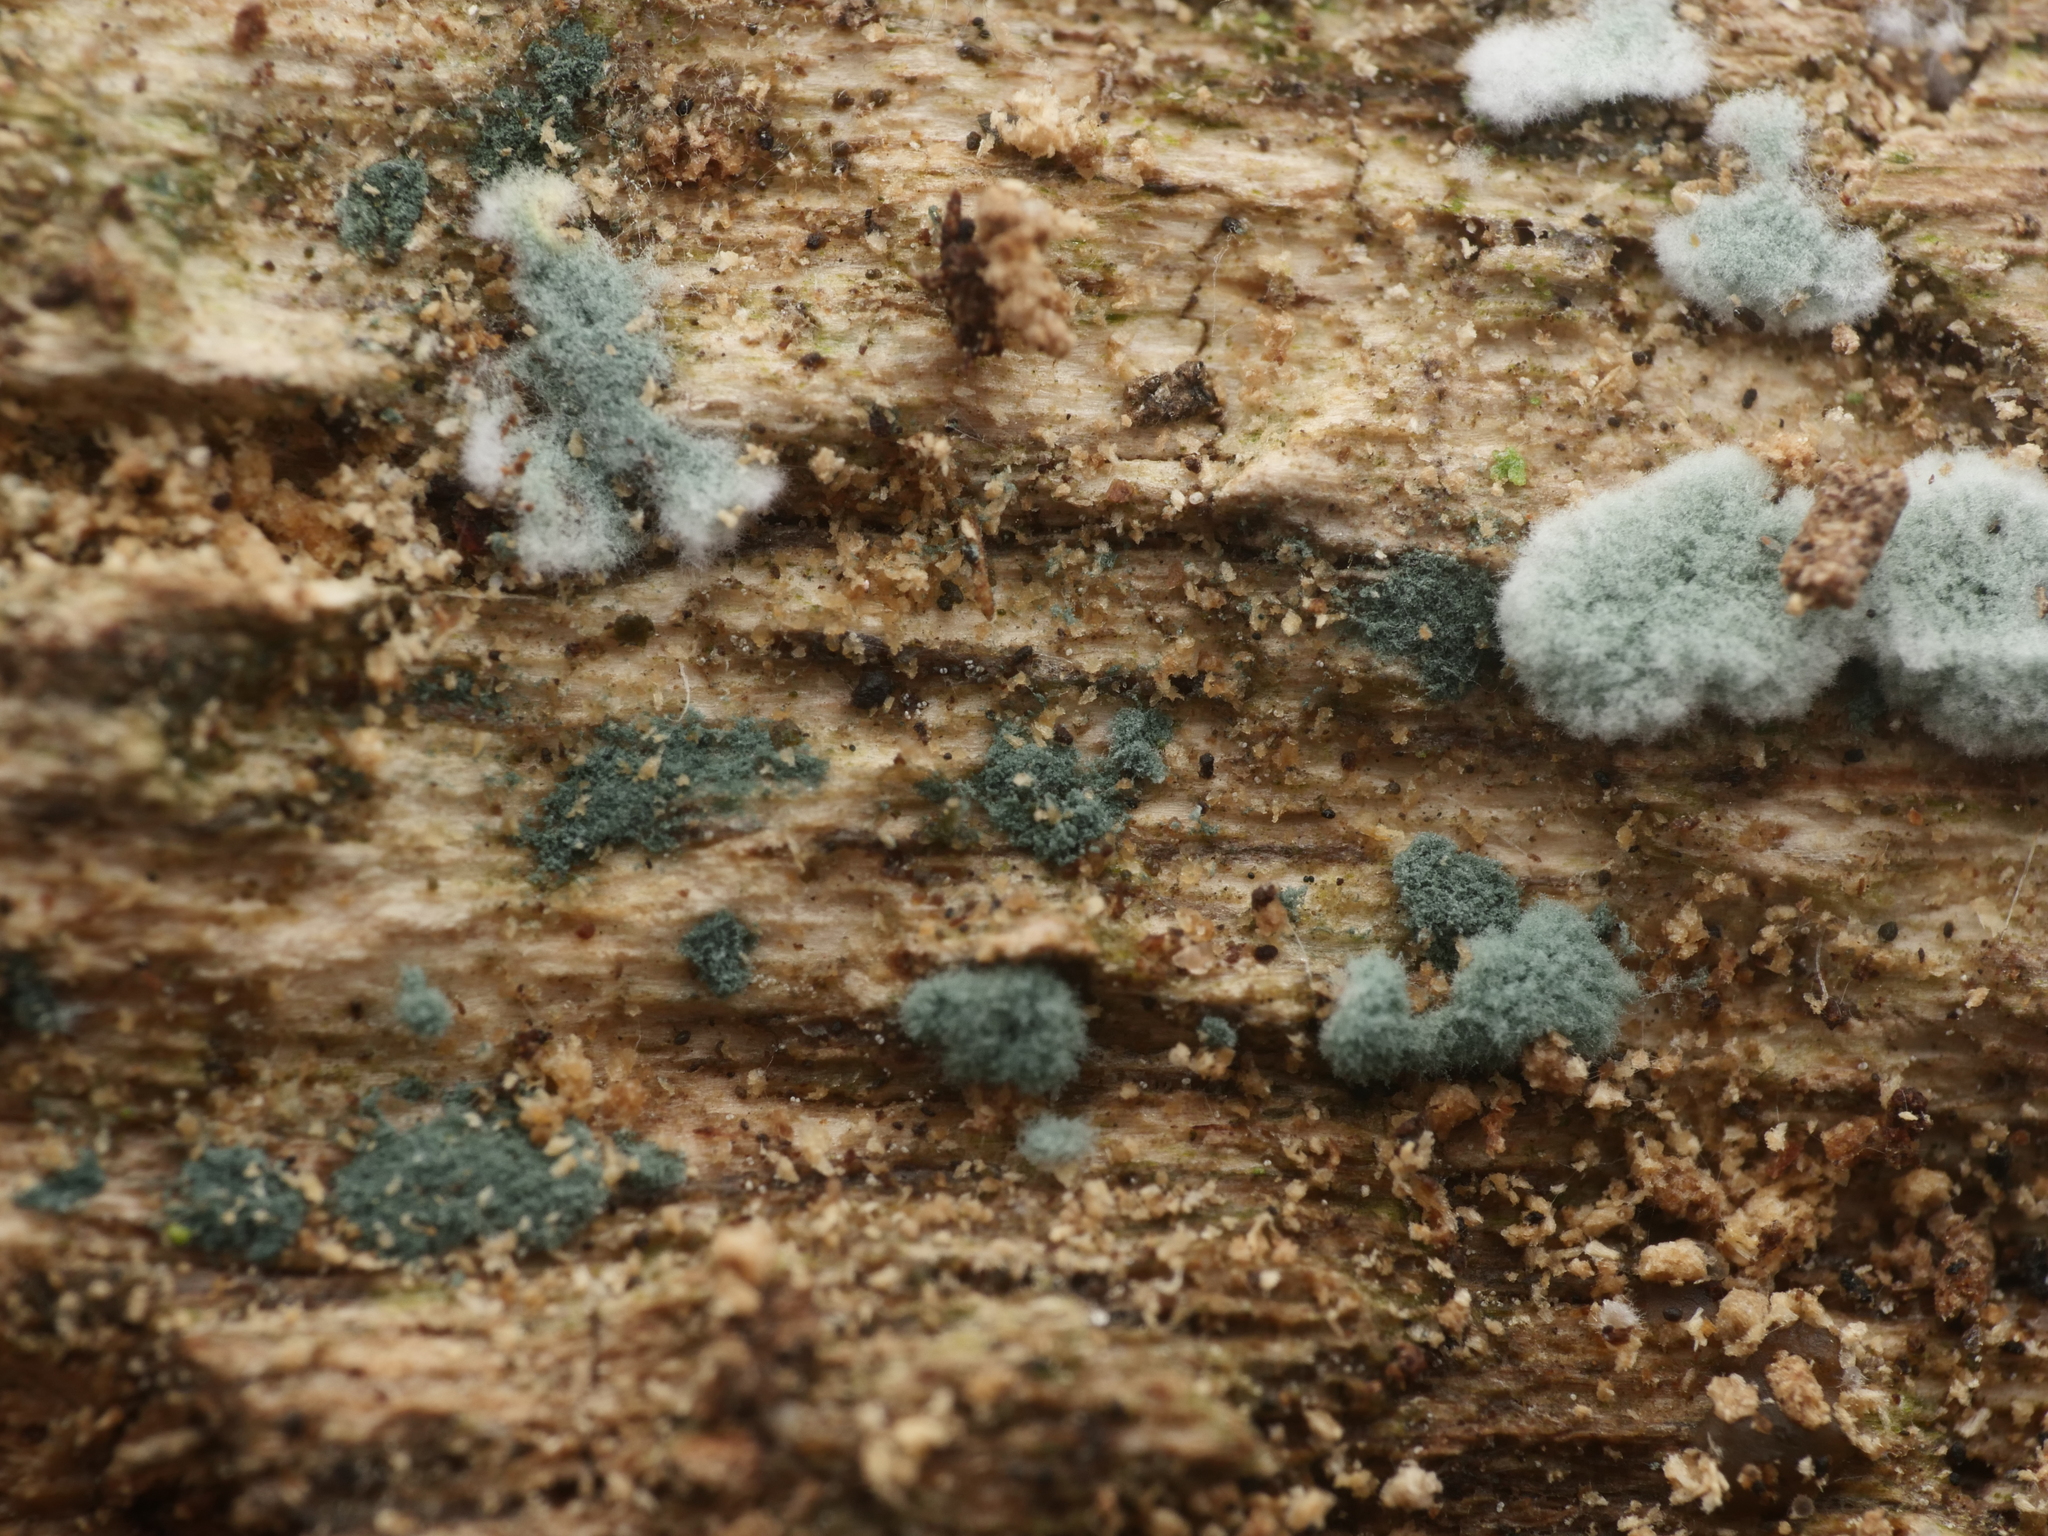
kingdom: Fungi
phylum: Ascomycota
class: Sordariomycetes
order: Hypocreales
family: Hypocreaceae
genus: Trichoderma
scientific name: Trichoderma viride
